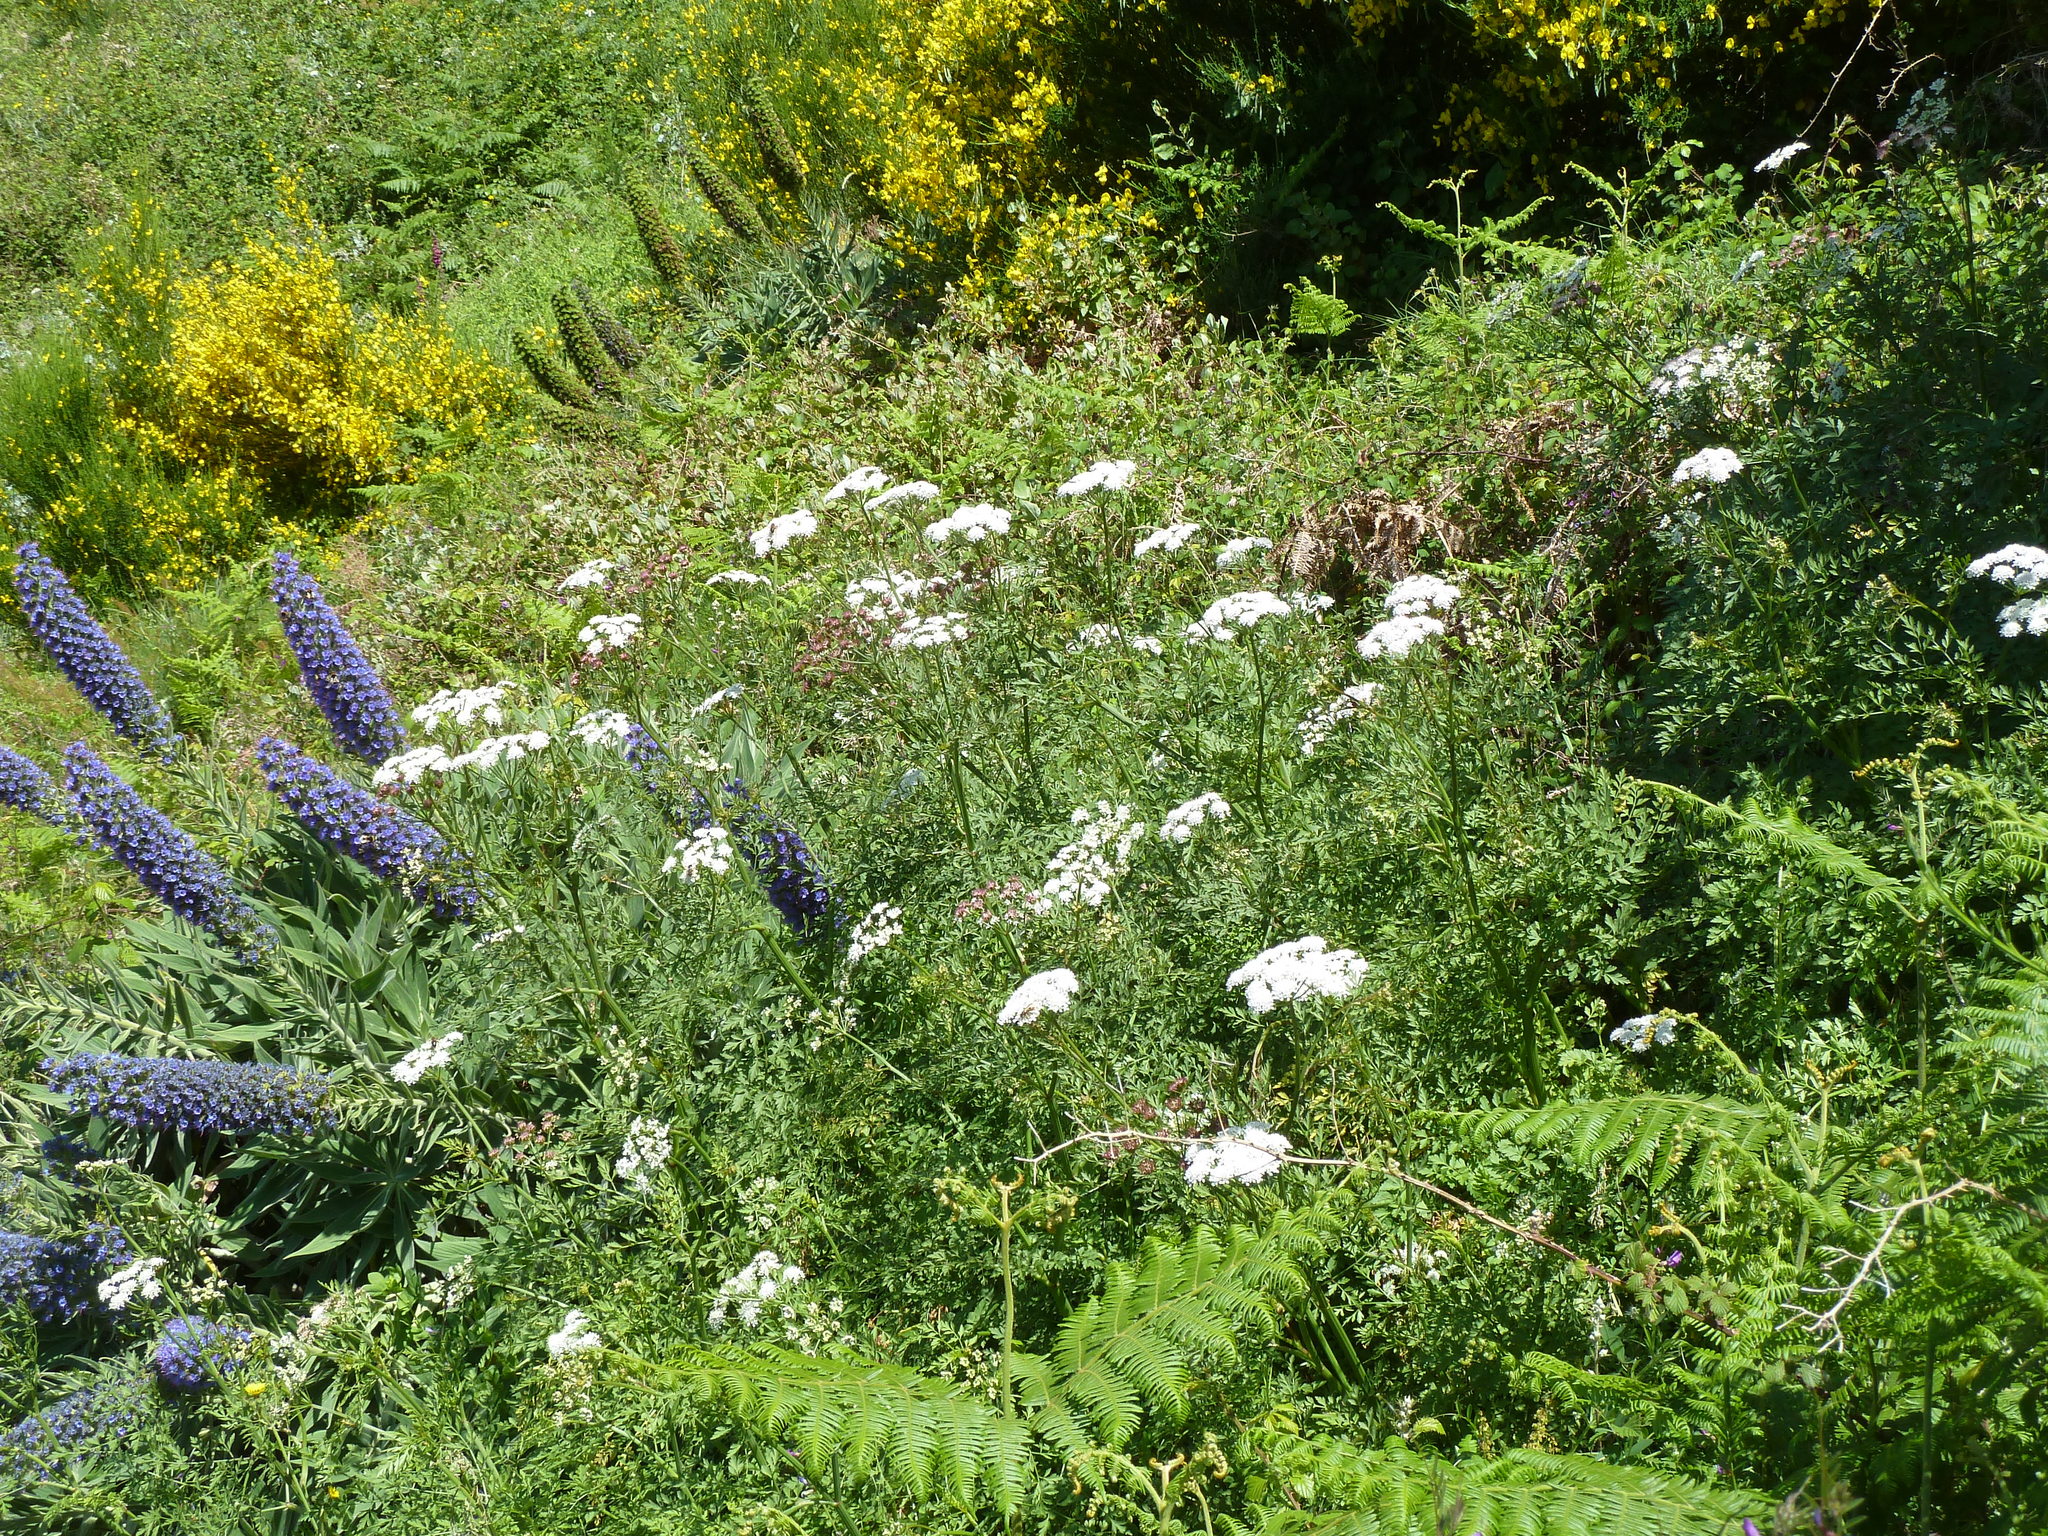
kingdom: Plantae
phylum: Tracheophyta
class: Magnoliopsida
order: Apiales
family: Apiaceae
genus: Oenanthe
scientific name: Oenanthe divaricata
